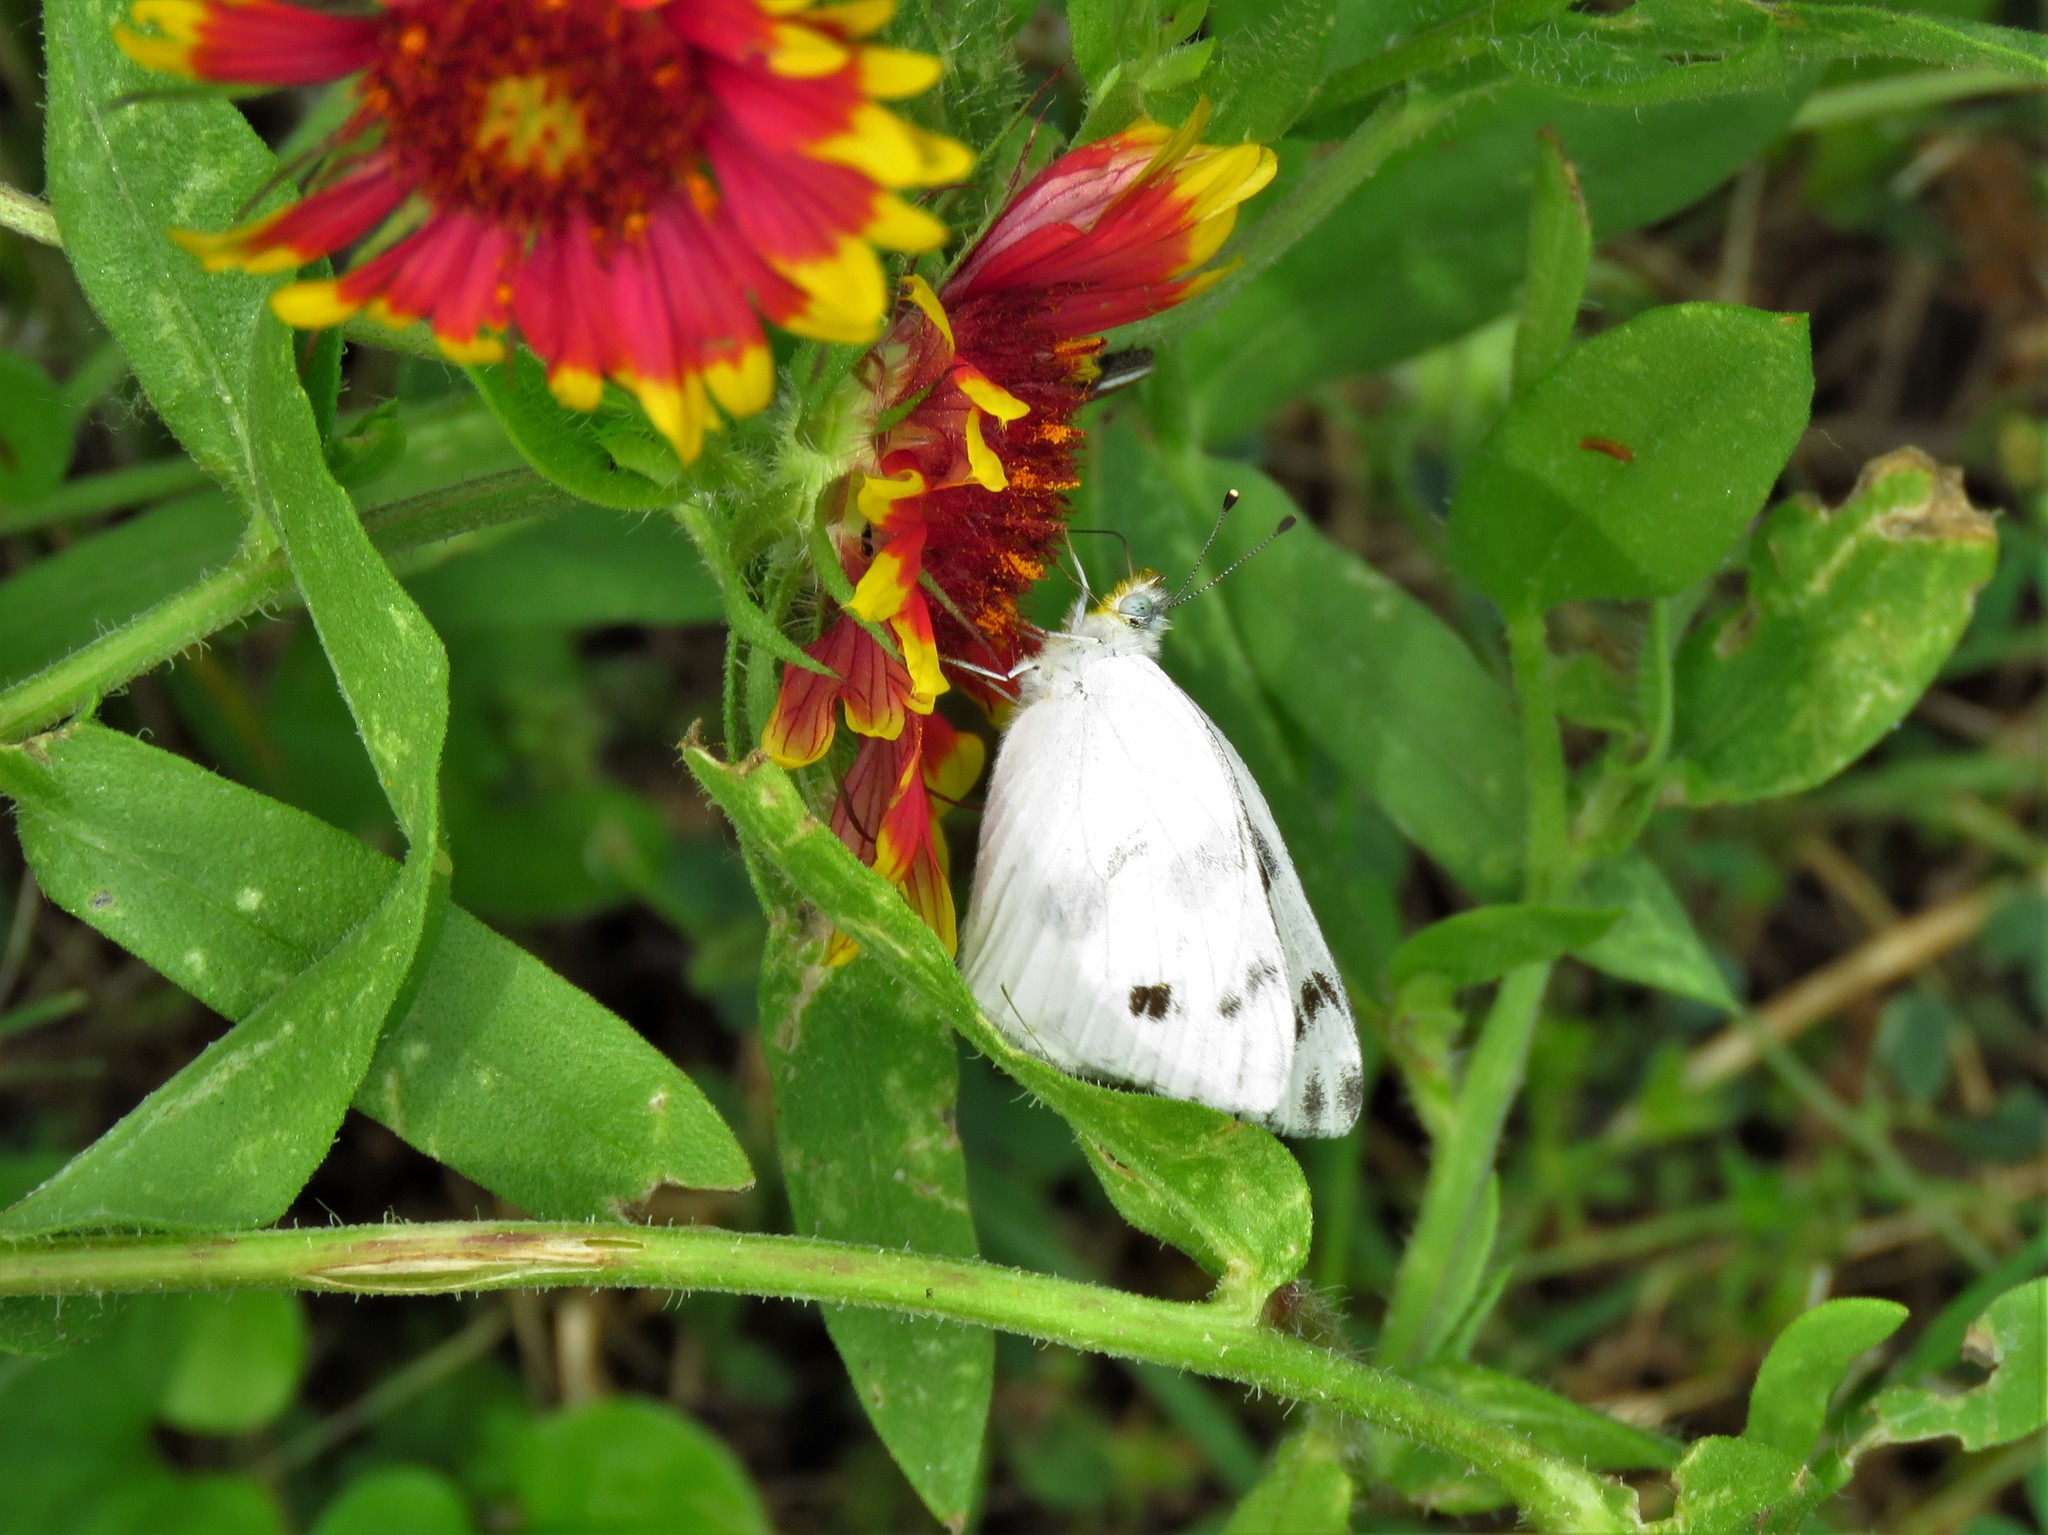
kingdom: Animalia
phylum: Arthropoda
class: Insecta
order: Lepidoptera
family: Pieridae
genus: Pontia
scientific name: Pontia protodice
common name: Checkered white
